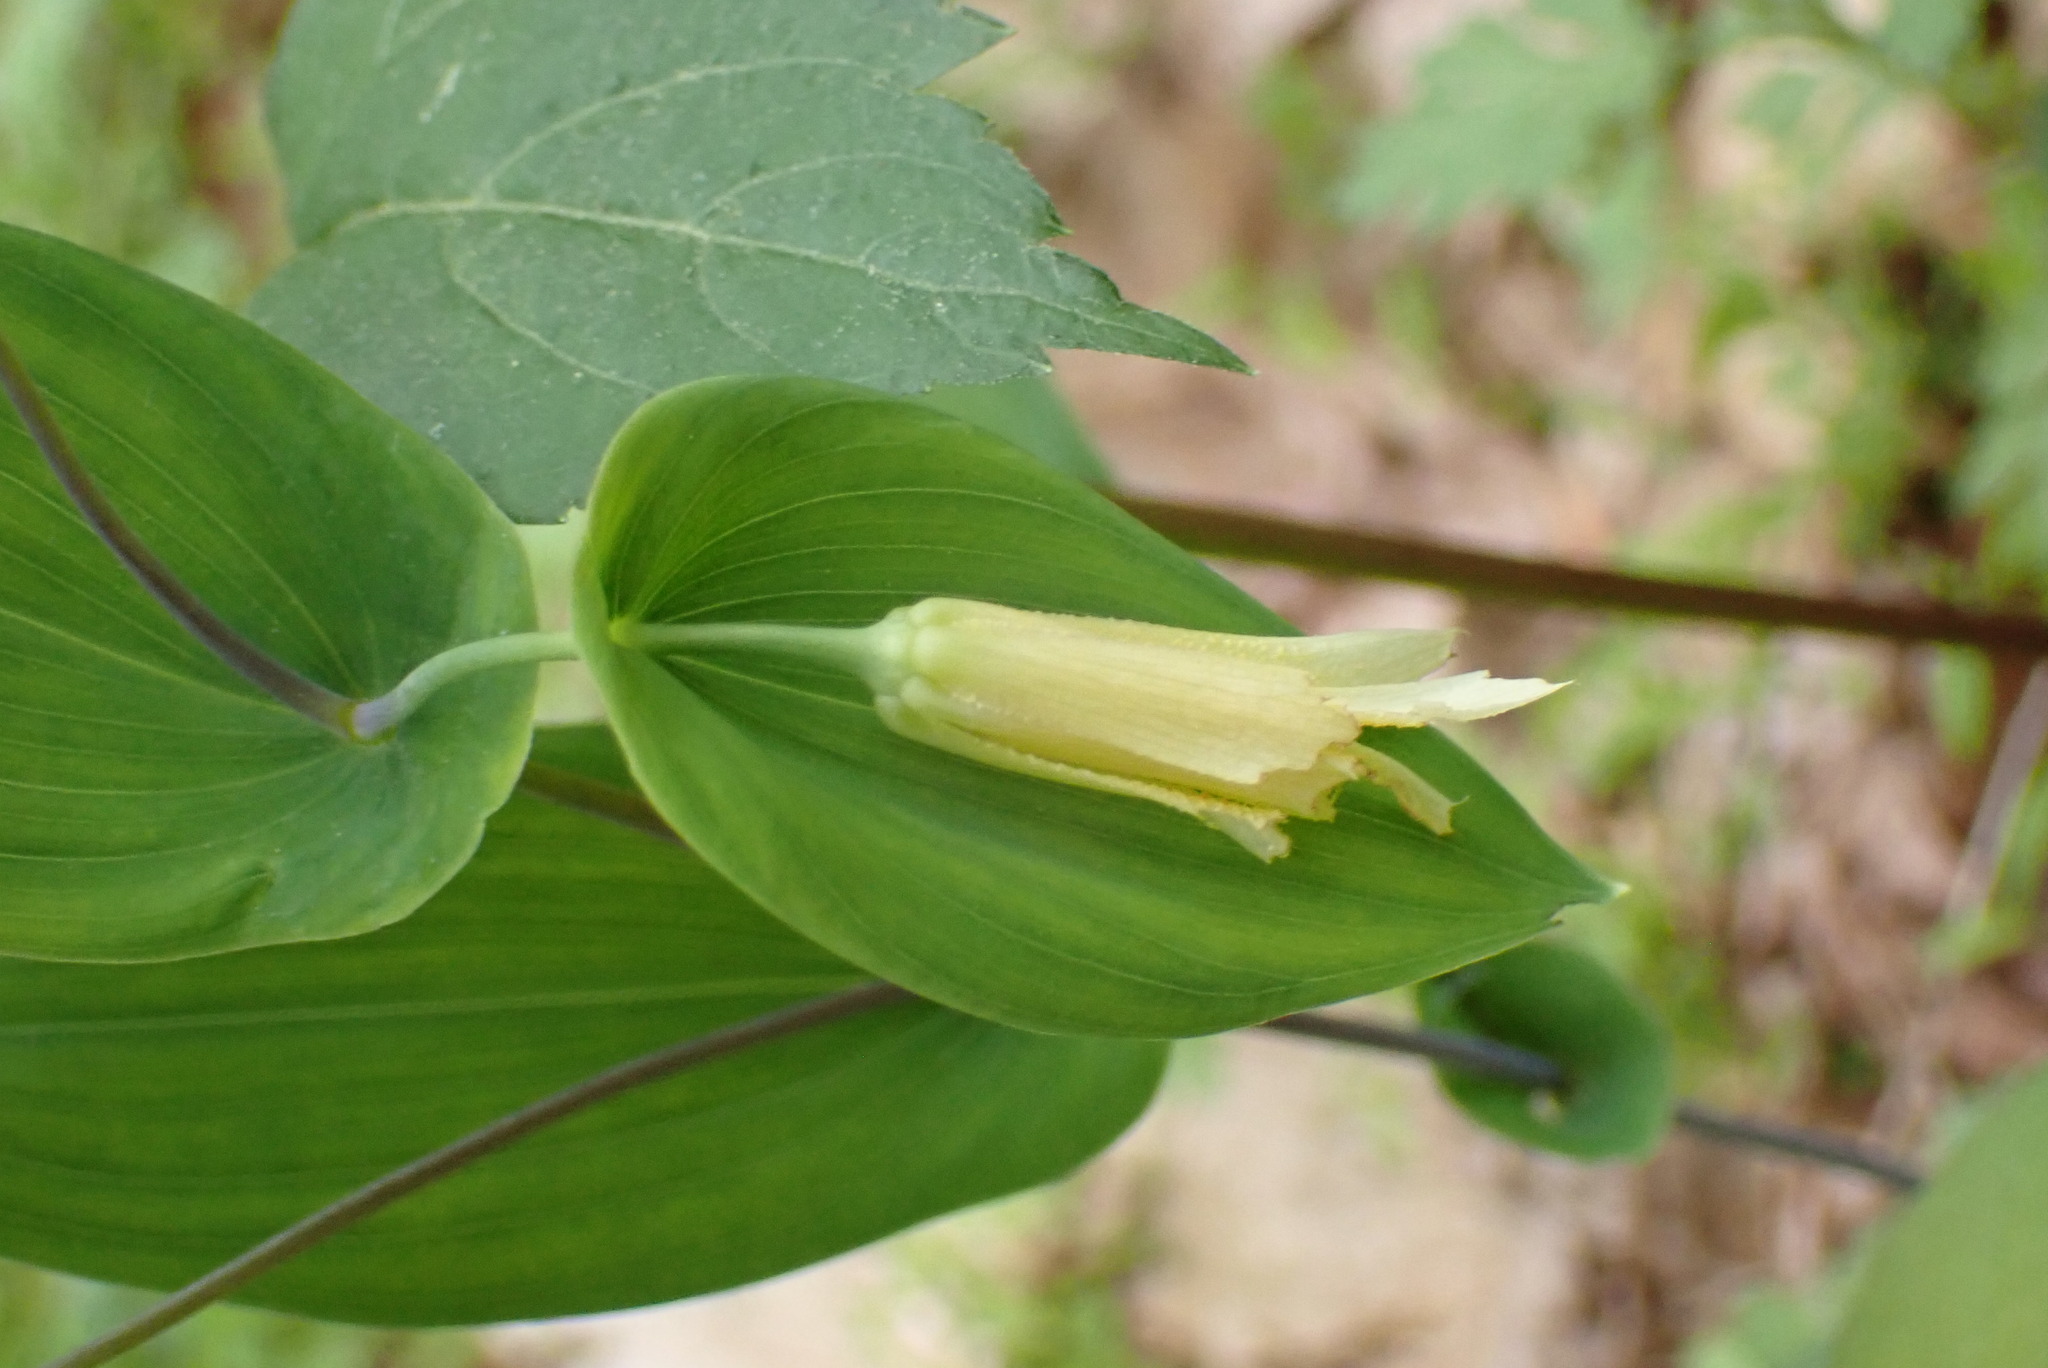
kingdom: Plantae
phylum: Tracheophyta
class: Liliopsida
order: Liliales
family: Colchicaceae
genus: Uvularia
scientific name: Uvularia perfoliata
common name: Perfoliate bellwort
